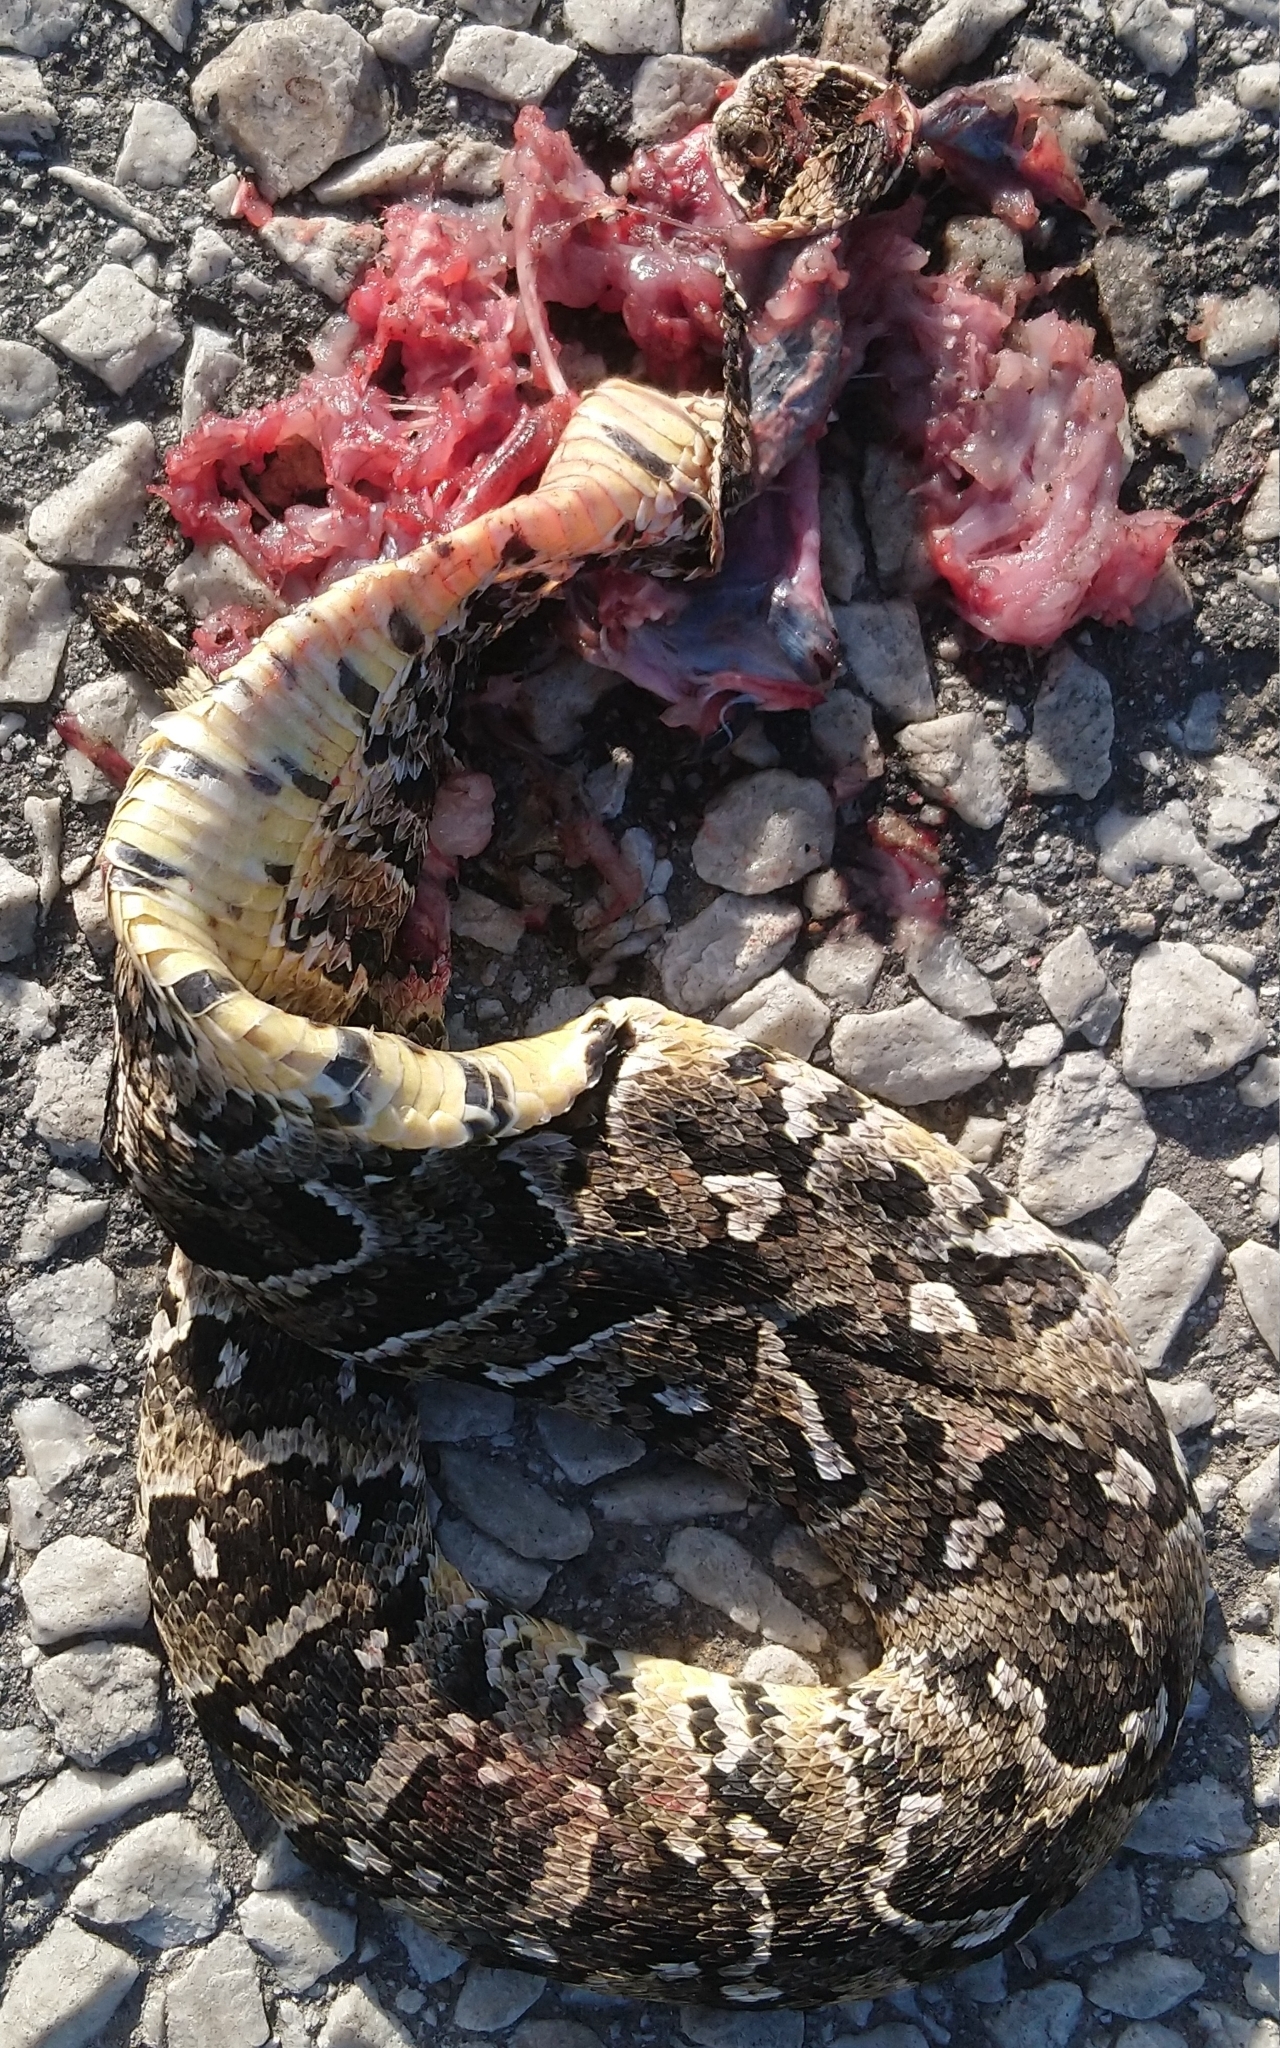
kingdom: Animalia
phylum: Chordata
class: Squamata
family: Viperidae
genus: Bitis
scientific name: Bitis arietans
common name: Puff adder
